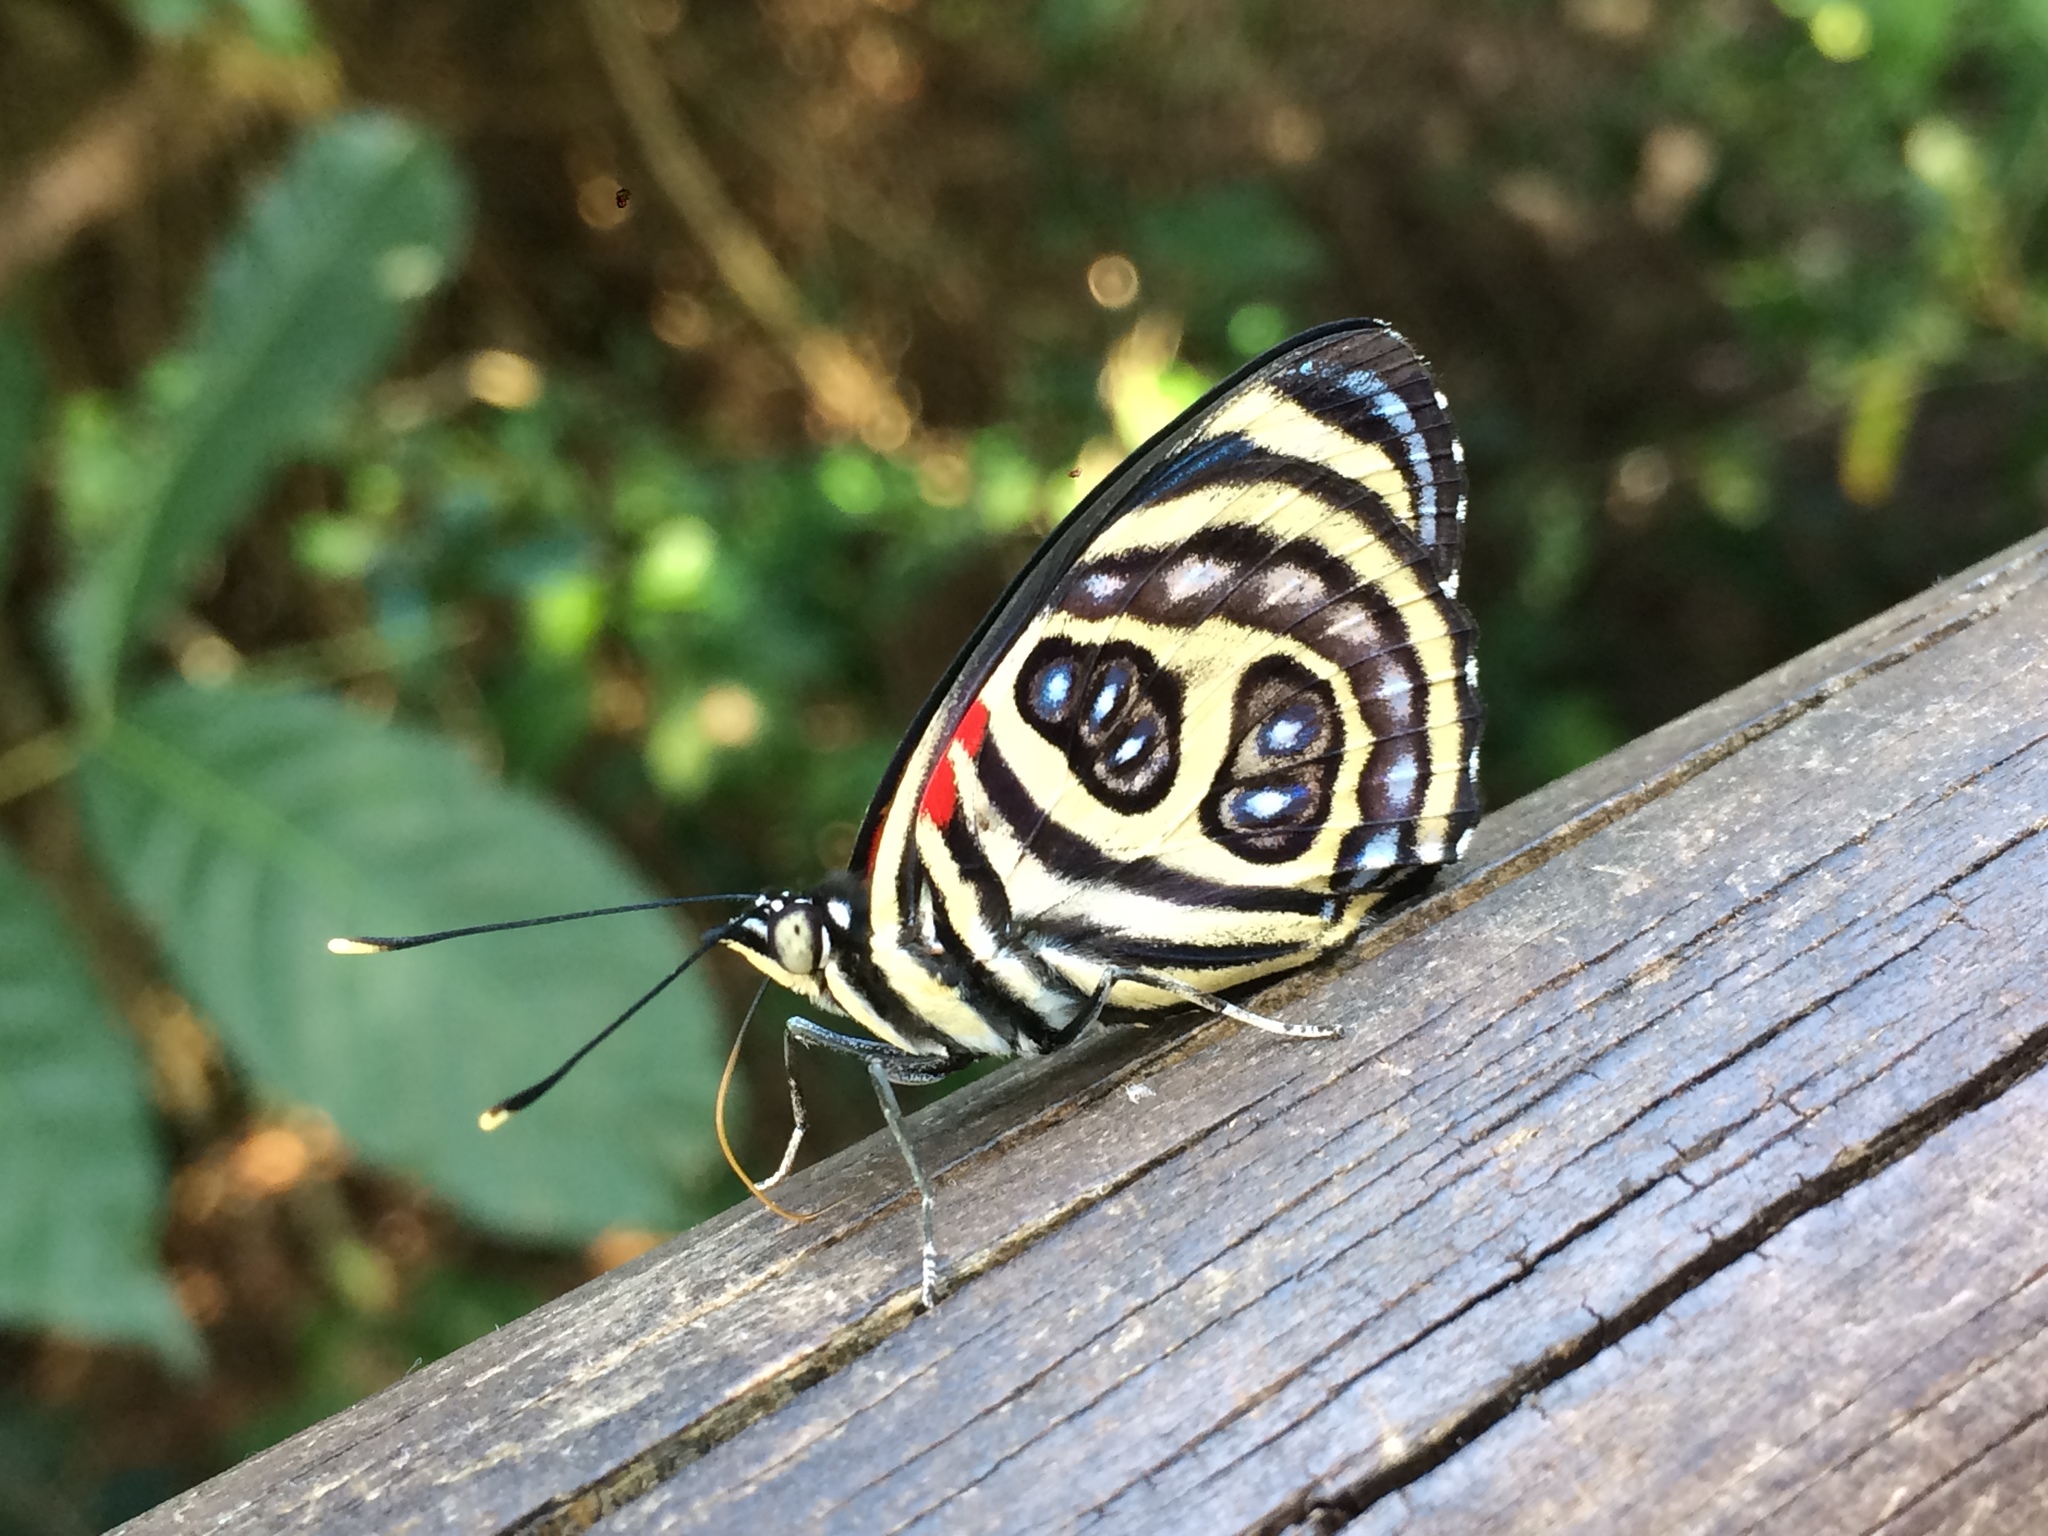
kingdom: Animalia
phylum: Arthropoda
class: Insecta
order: Lepidoptera
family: Nymphalidae
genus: Catagramma
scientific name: Catagramma pygas
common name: Godart's numberwing
